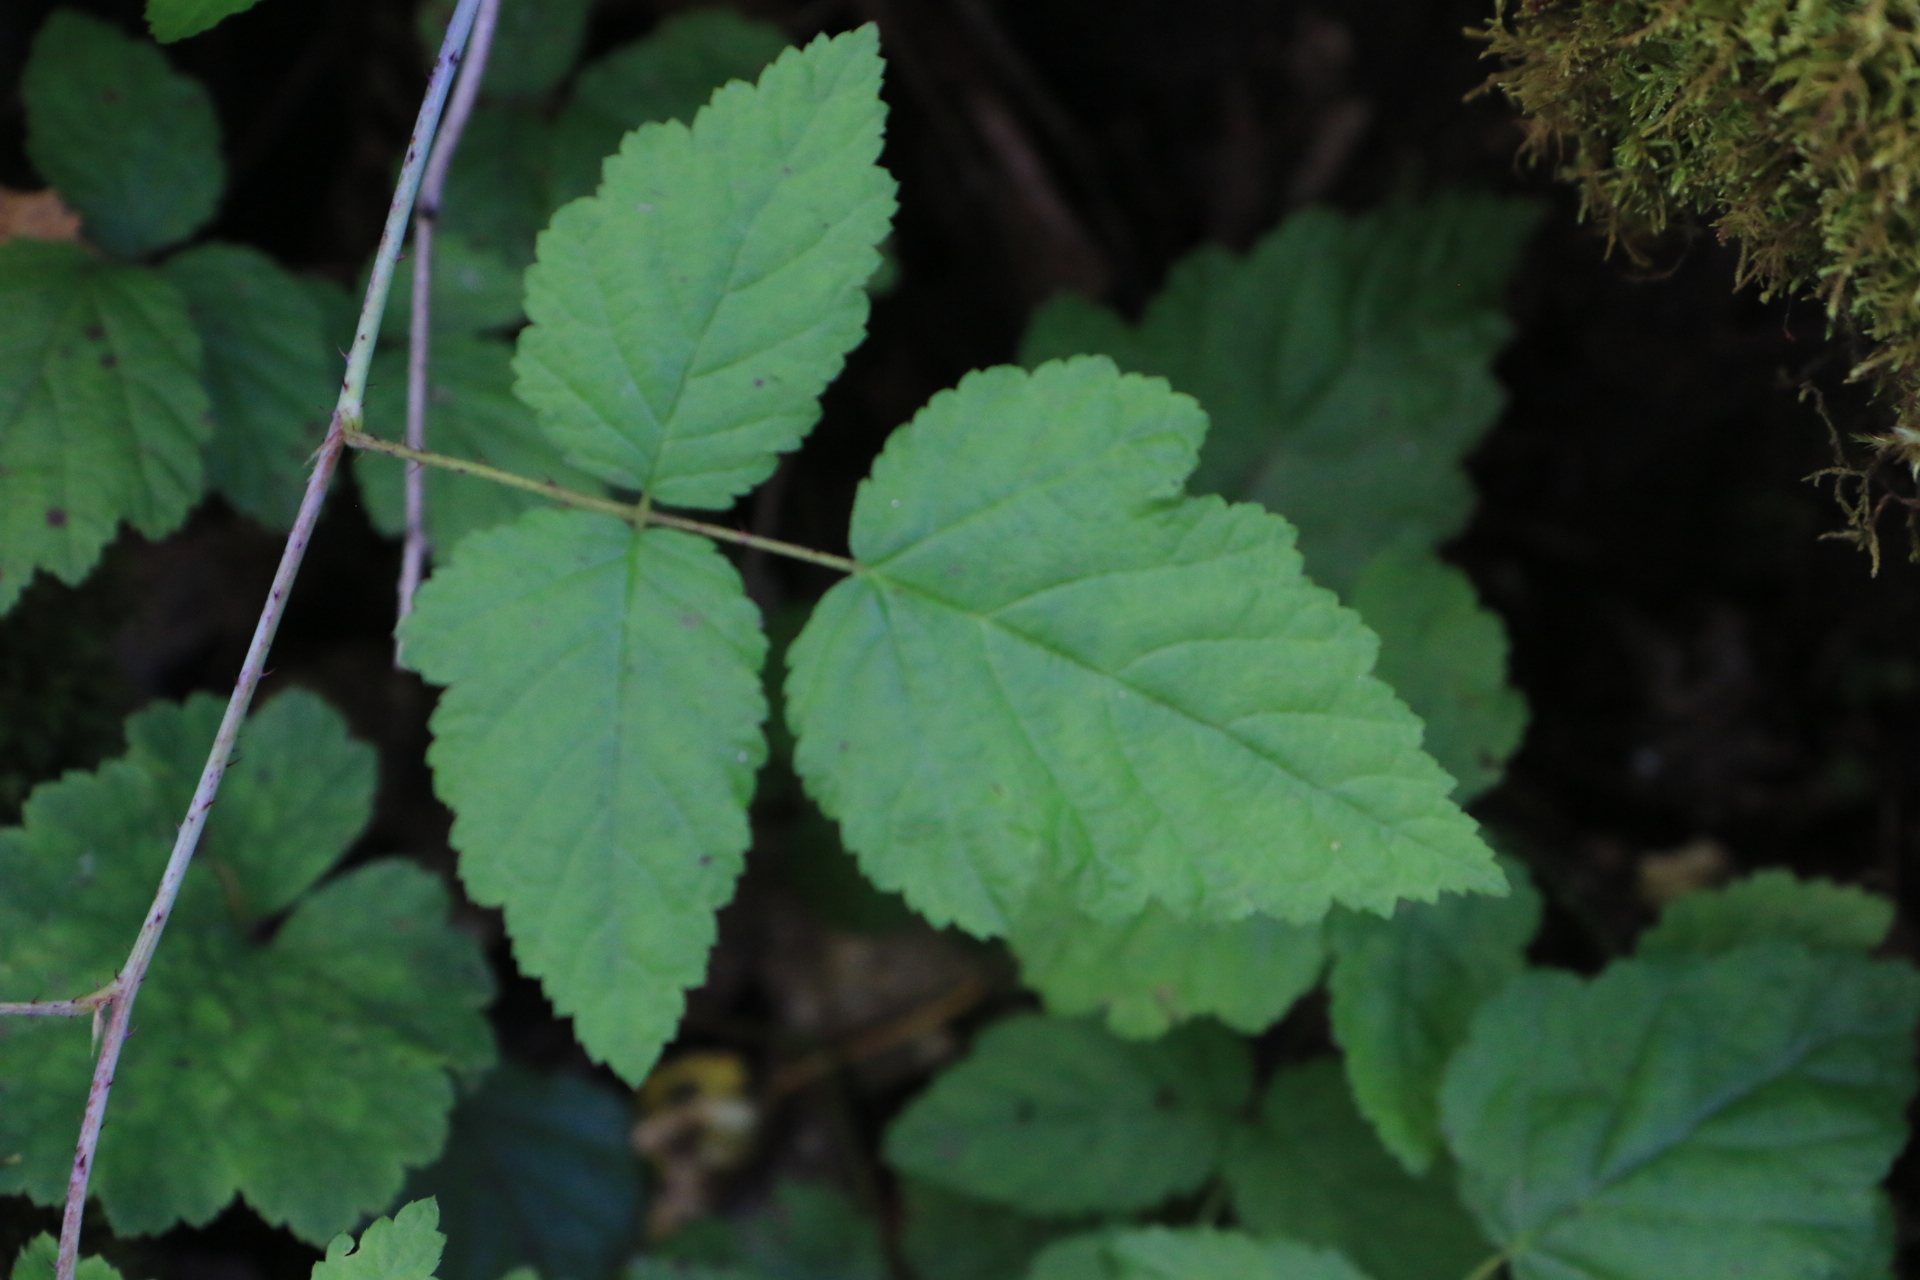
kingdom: Plantae
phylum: Tracheophyta
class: Magnoliopsida
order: Rosales
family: Rosaceae
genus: Rubus
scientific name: Rubus ursinus
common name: Pacific blackberry
